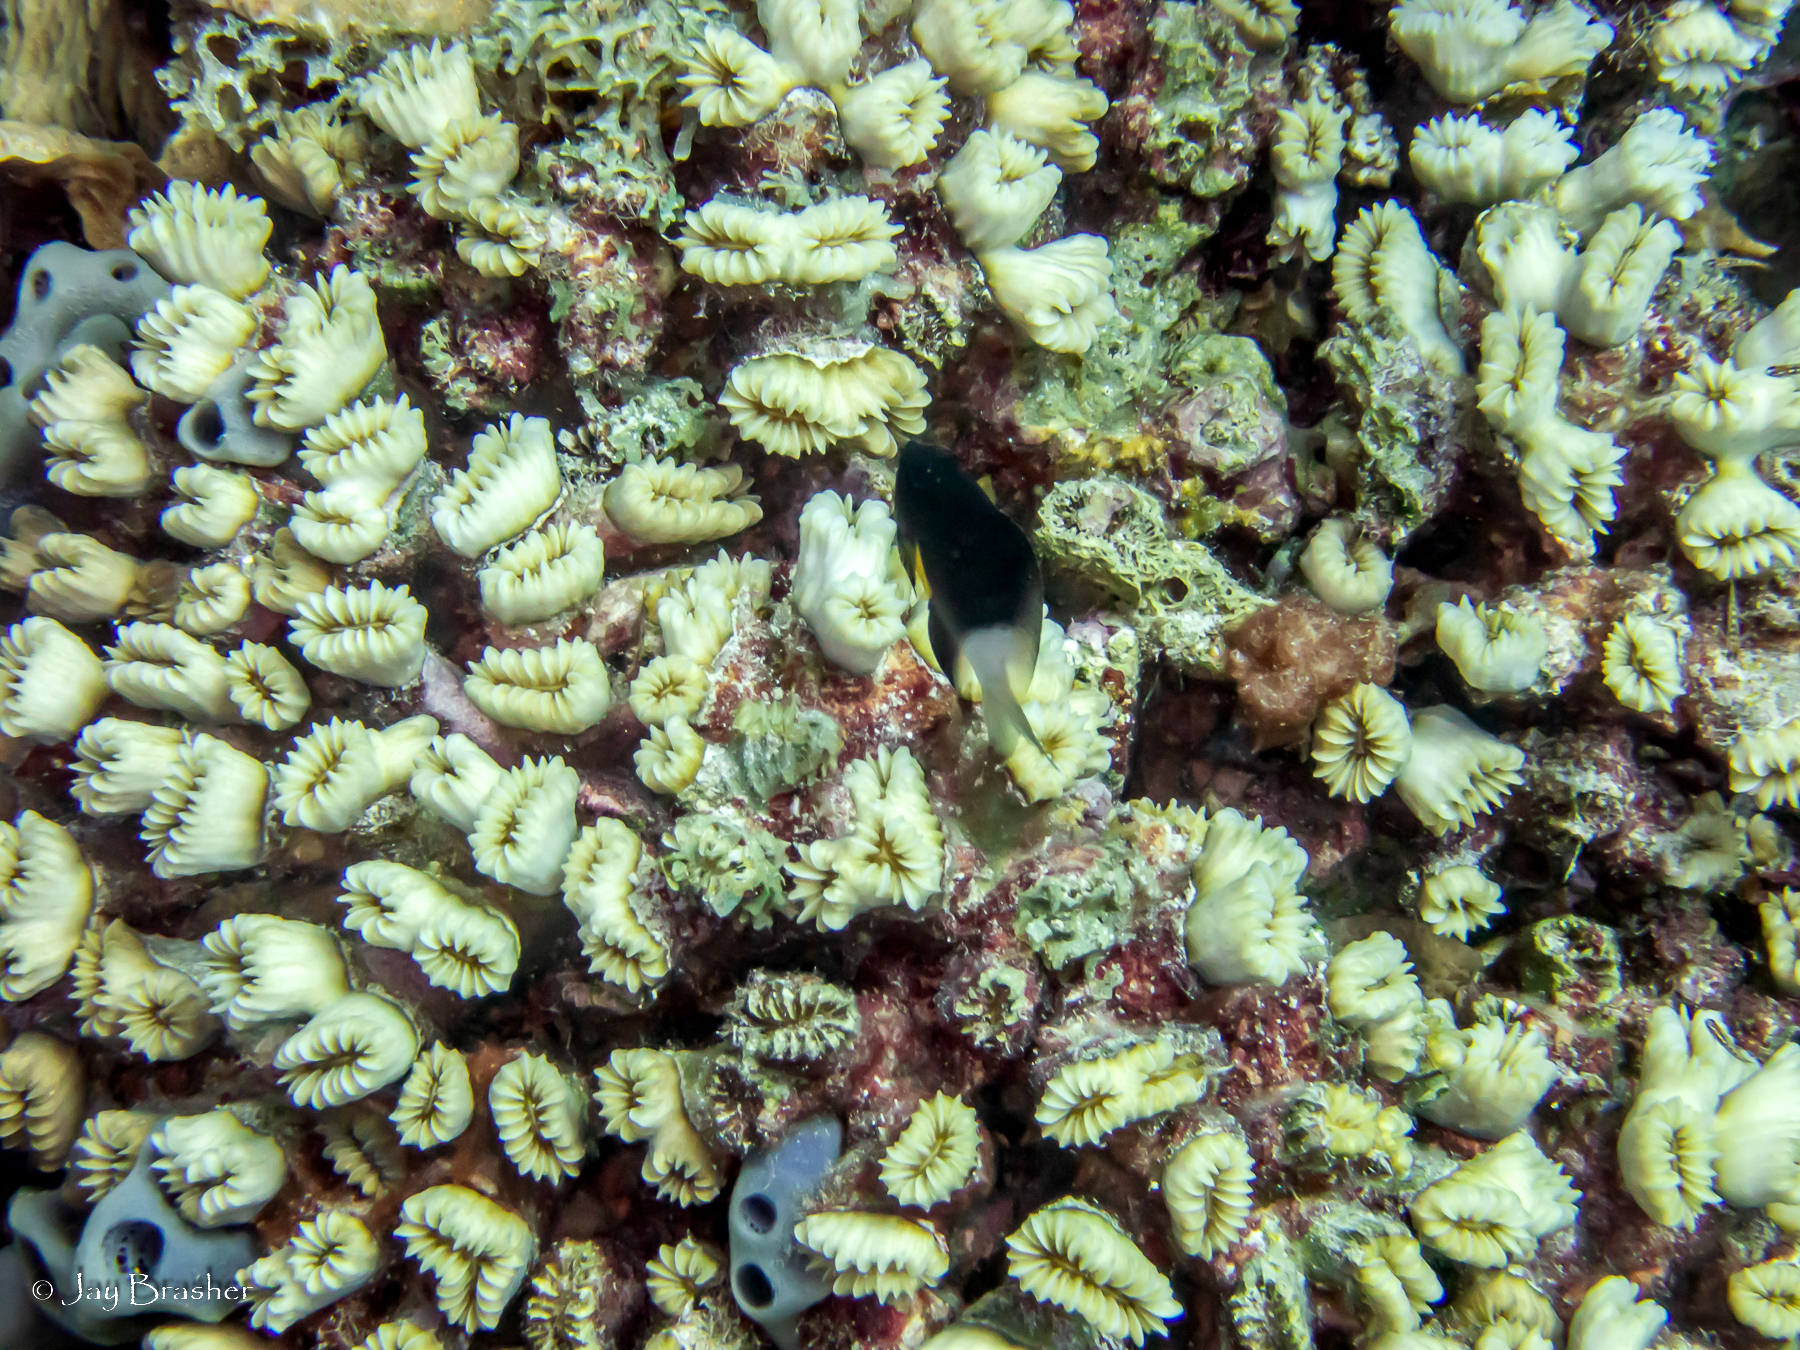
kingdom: Animalia
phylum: Chordata
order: Perciformes
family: Pomacentridae
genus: Stegastes
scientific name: Stegastes partitus
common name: Bicolor damselfish
